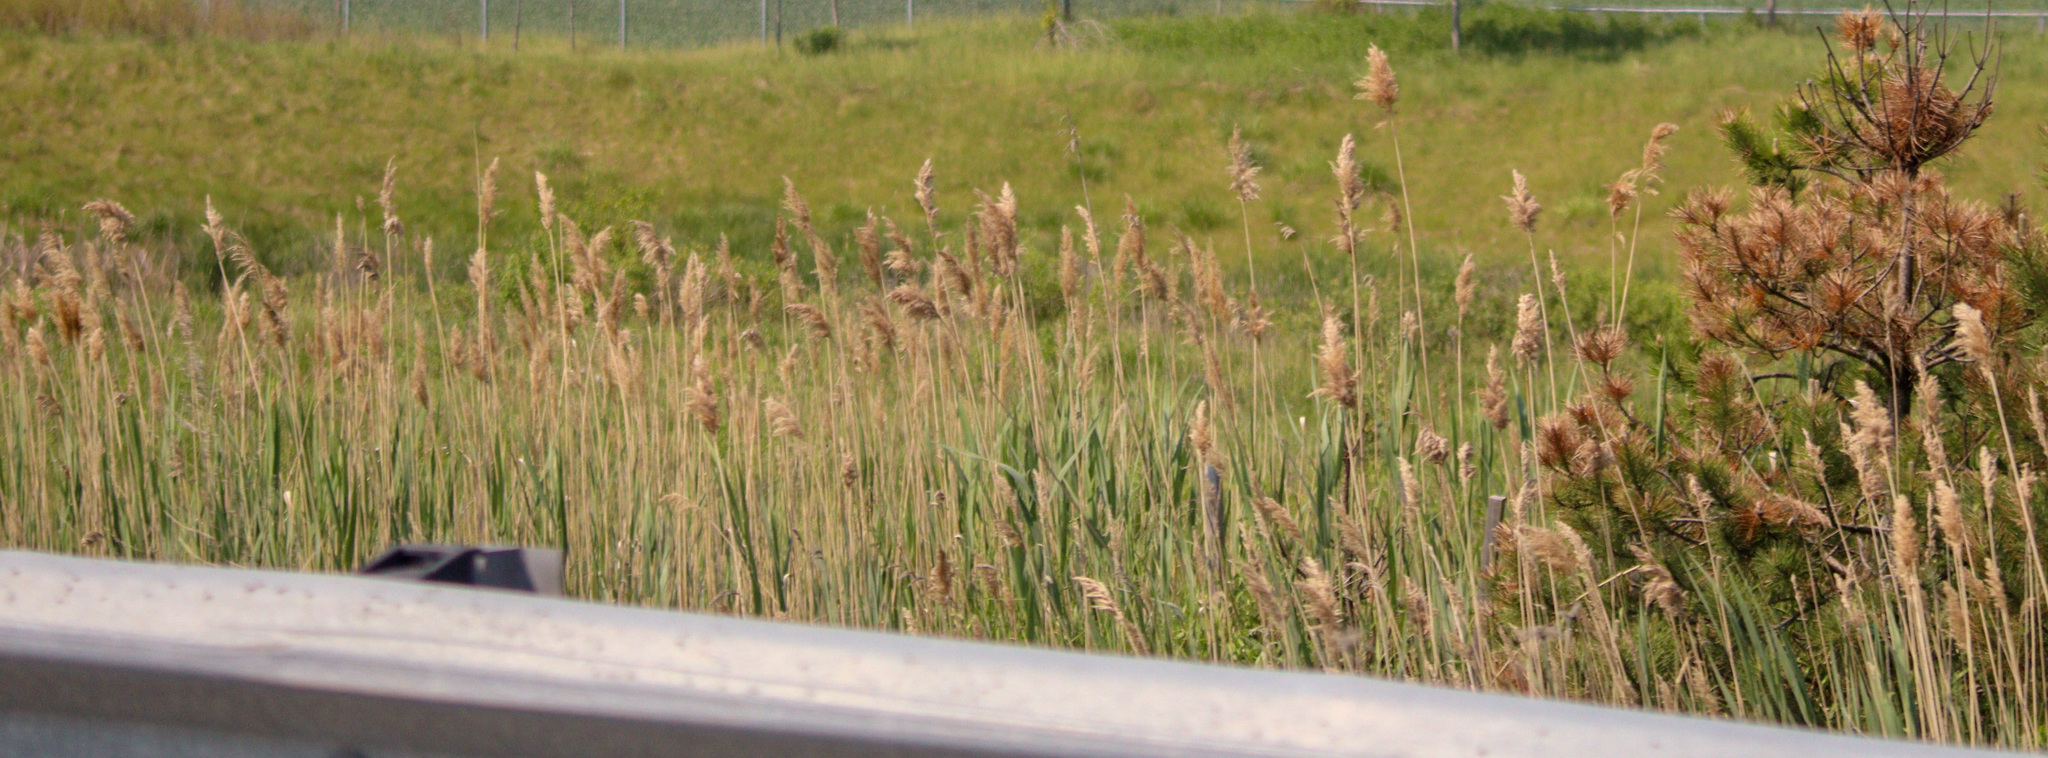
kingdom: Plantae
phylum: Tracheophyta
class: Liliopsida
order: Poales
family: Poaceae
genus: Phragmites
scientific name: Phragmites australis
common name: Common reed
